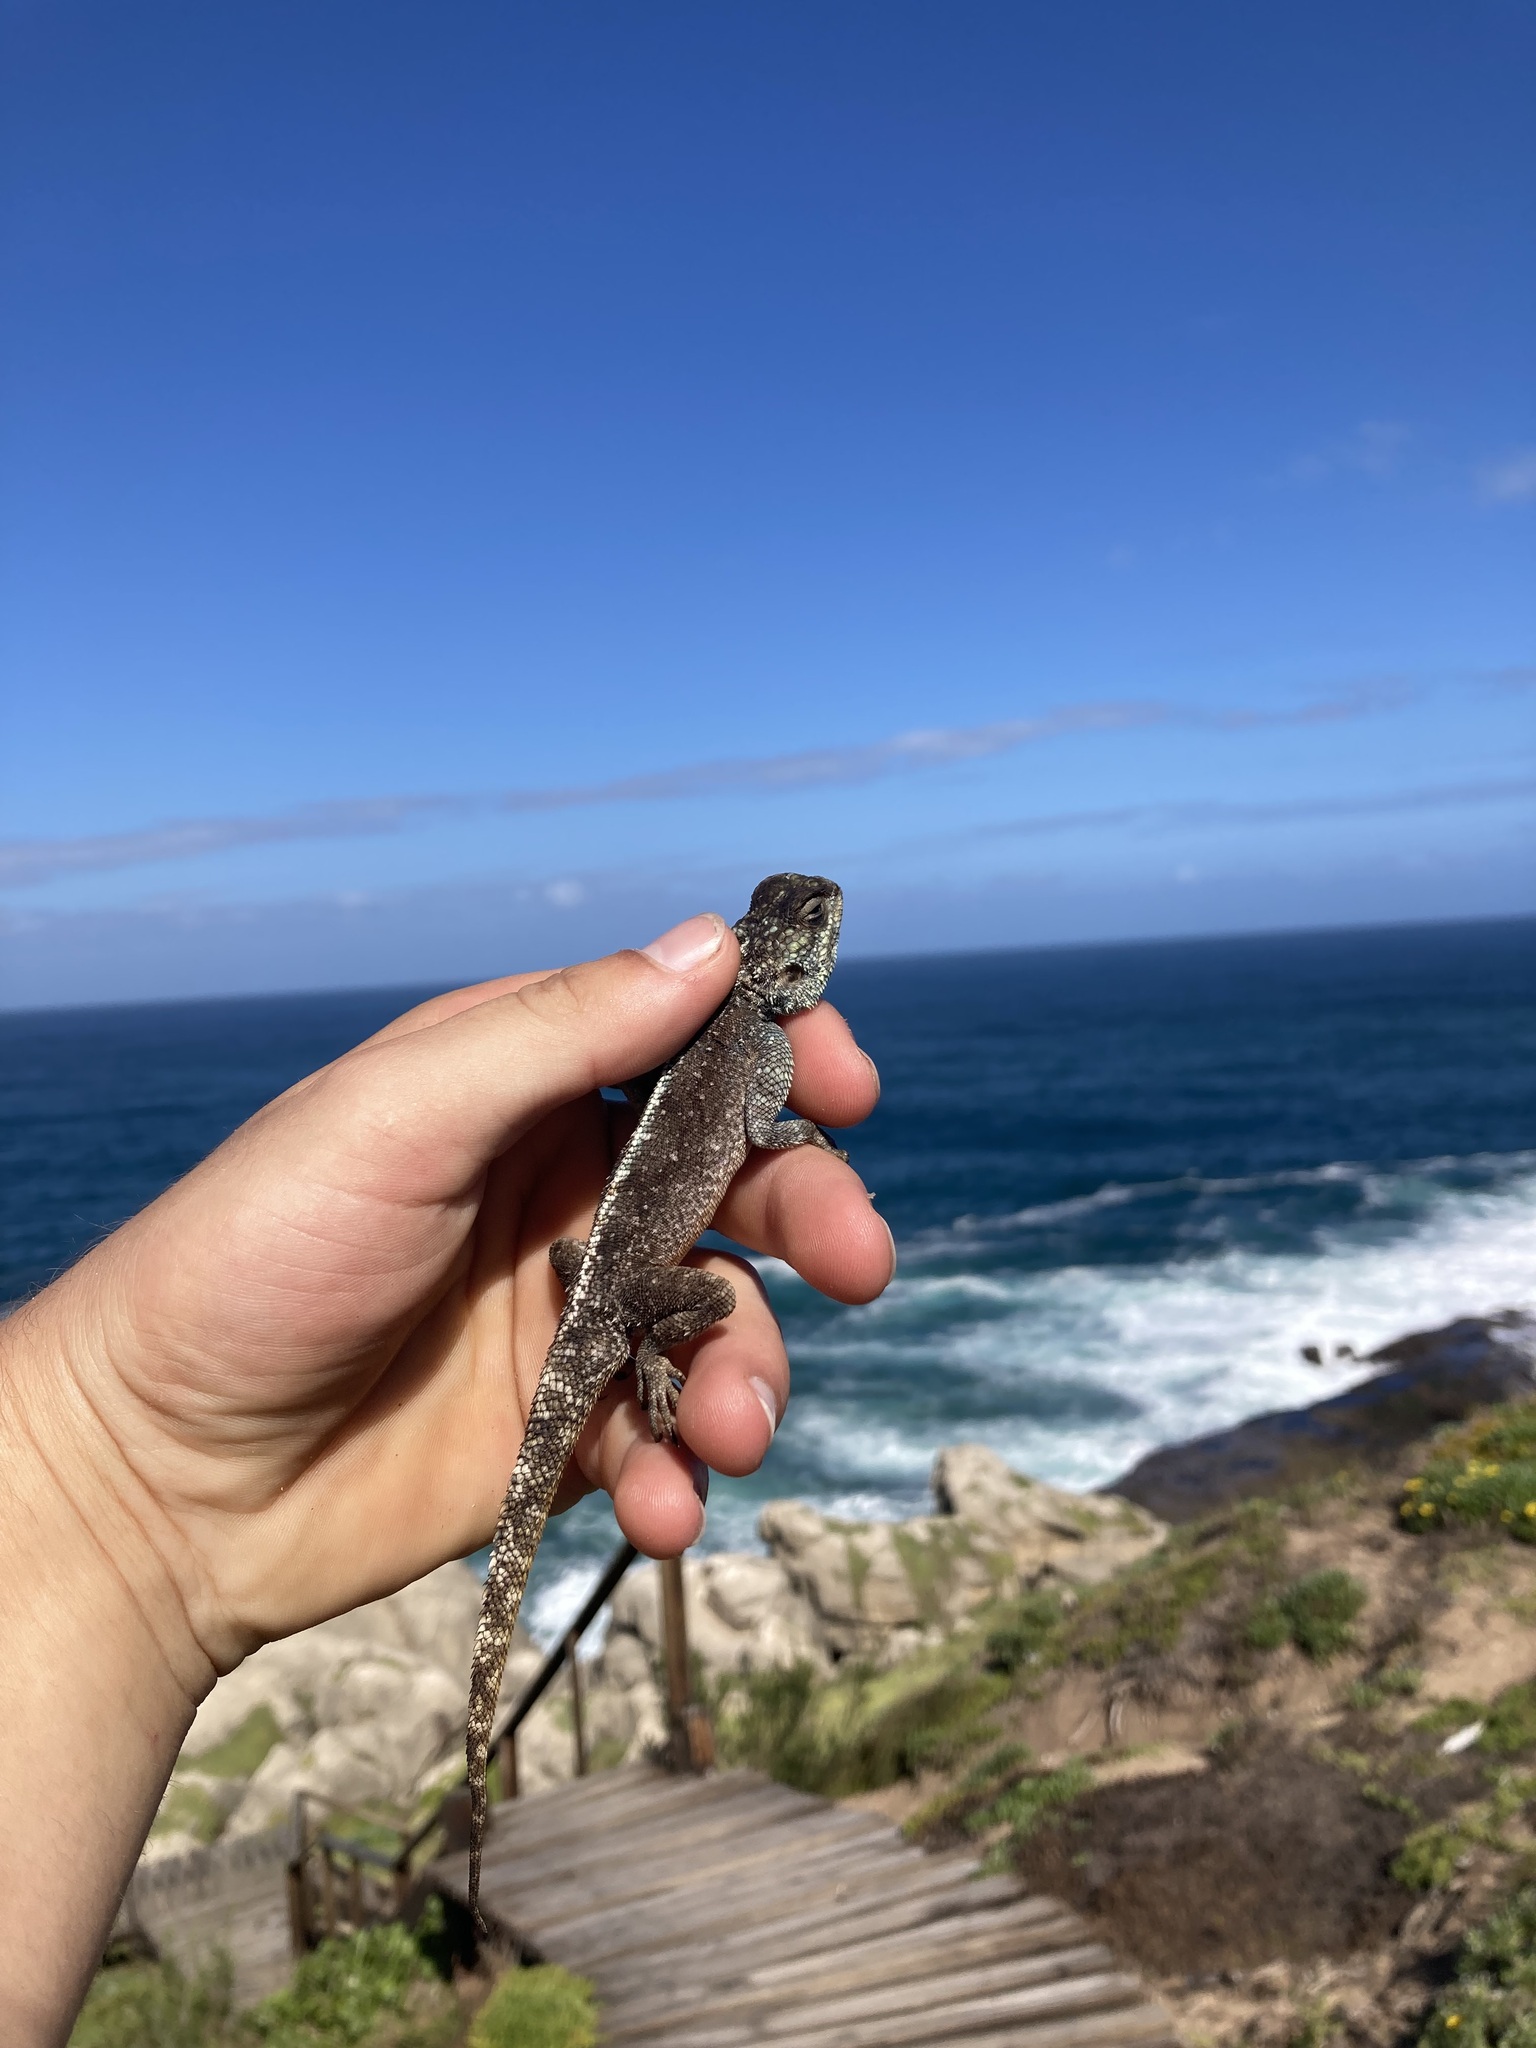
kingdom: Animalia
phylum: Chordata
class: Squamata
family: Agamidae
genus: Agama
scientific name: Agama atra
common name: Southern african rock agama
